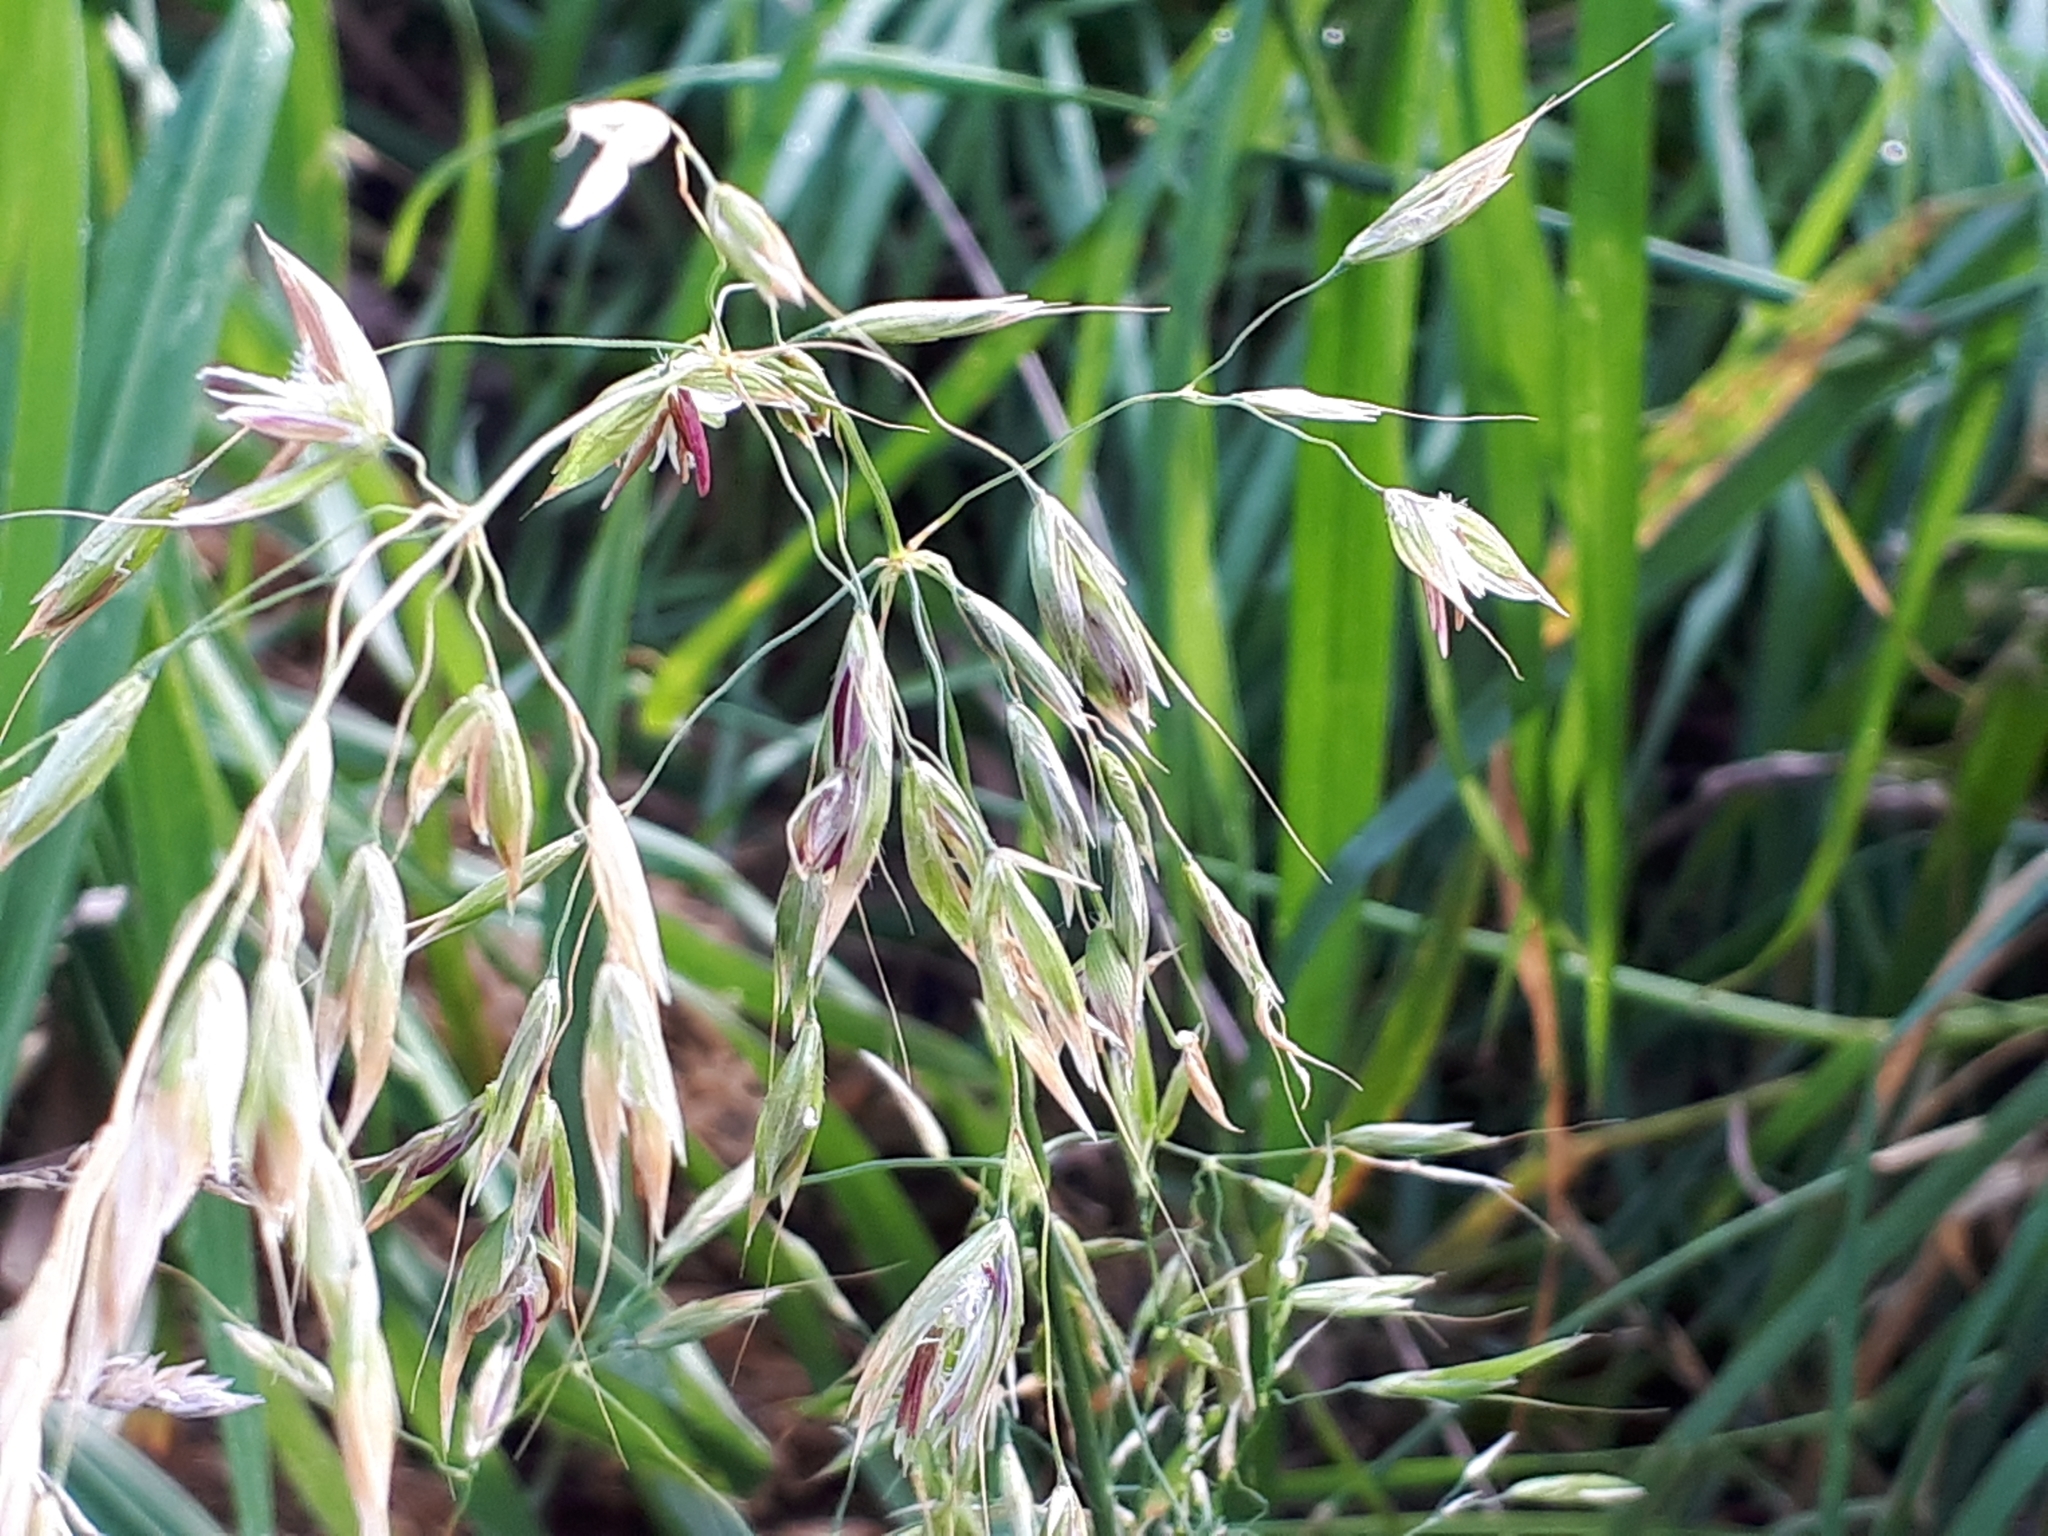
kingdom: Plantae
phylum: Tracheophyta
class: Liliopsida
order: Poales
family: Poaceae
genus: Arrhenatherum
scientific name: Arrhenatherum elatius
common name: Tall oatgrass
